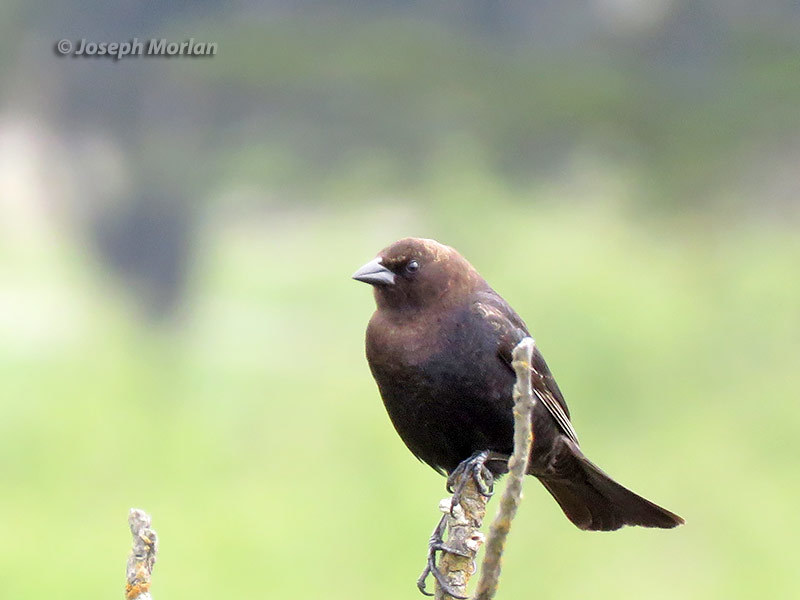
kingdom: Animalia
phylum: Chordata
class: Aves
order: Passeriformes
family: Icteridae
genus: Molothrus
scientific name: Molothrus ater
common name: Brown-headed cowbird
